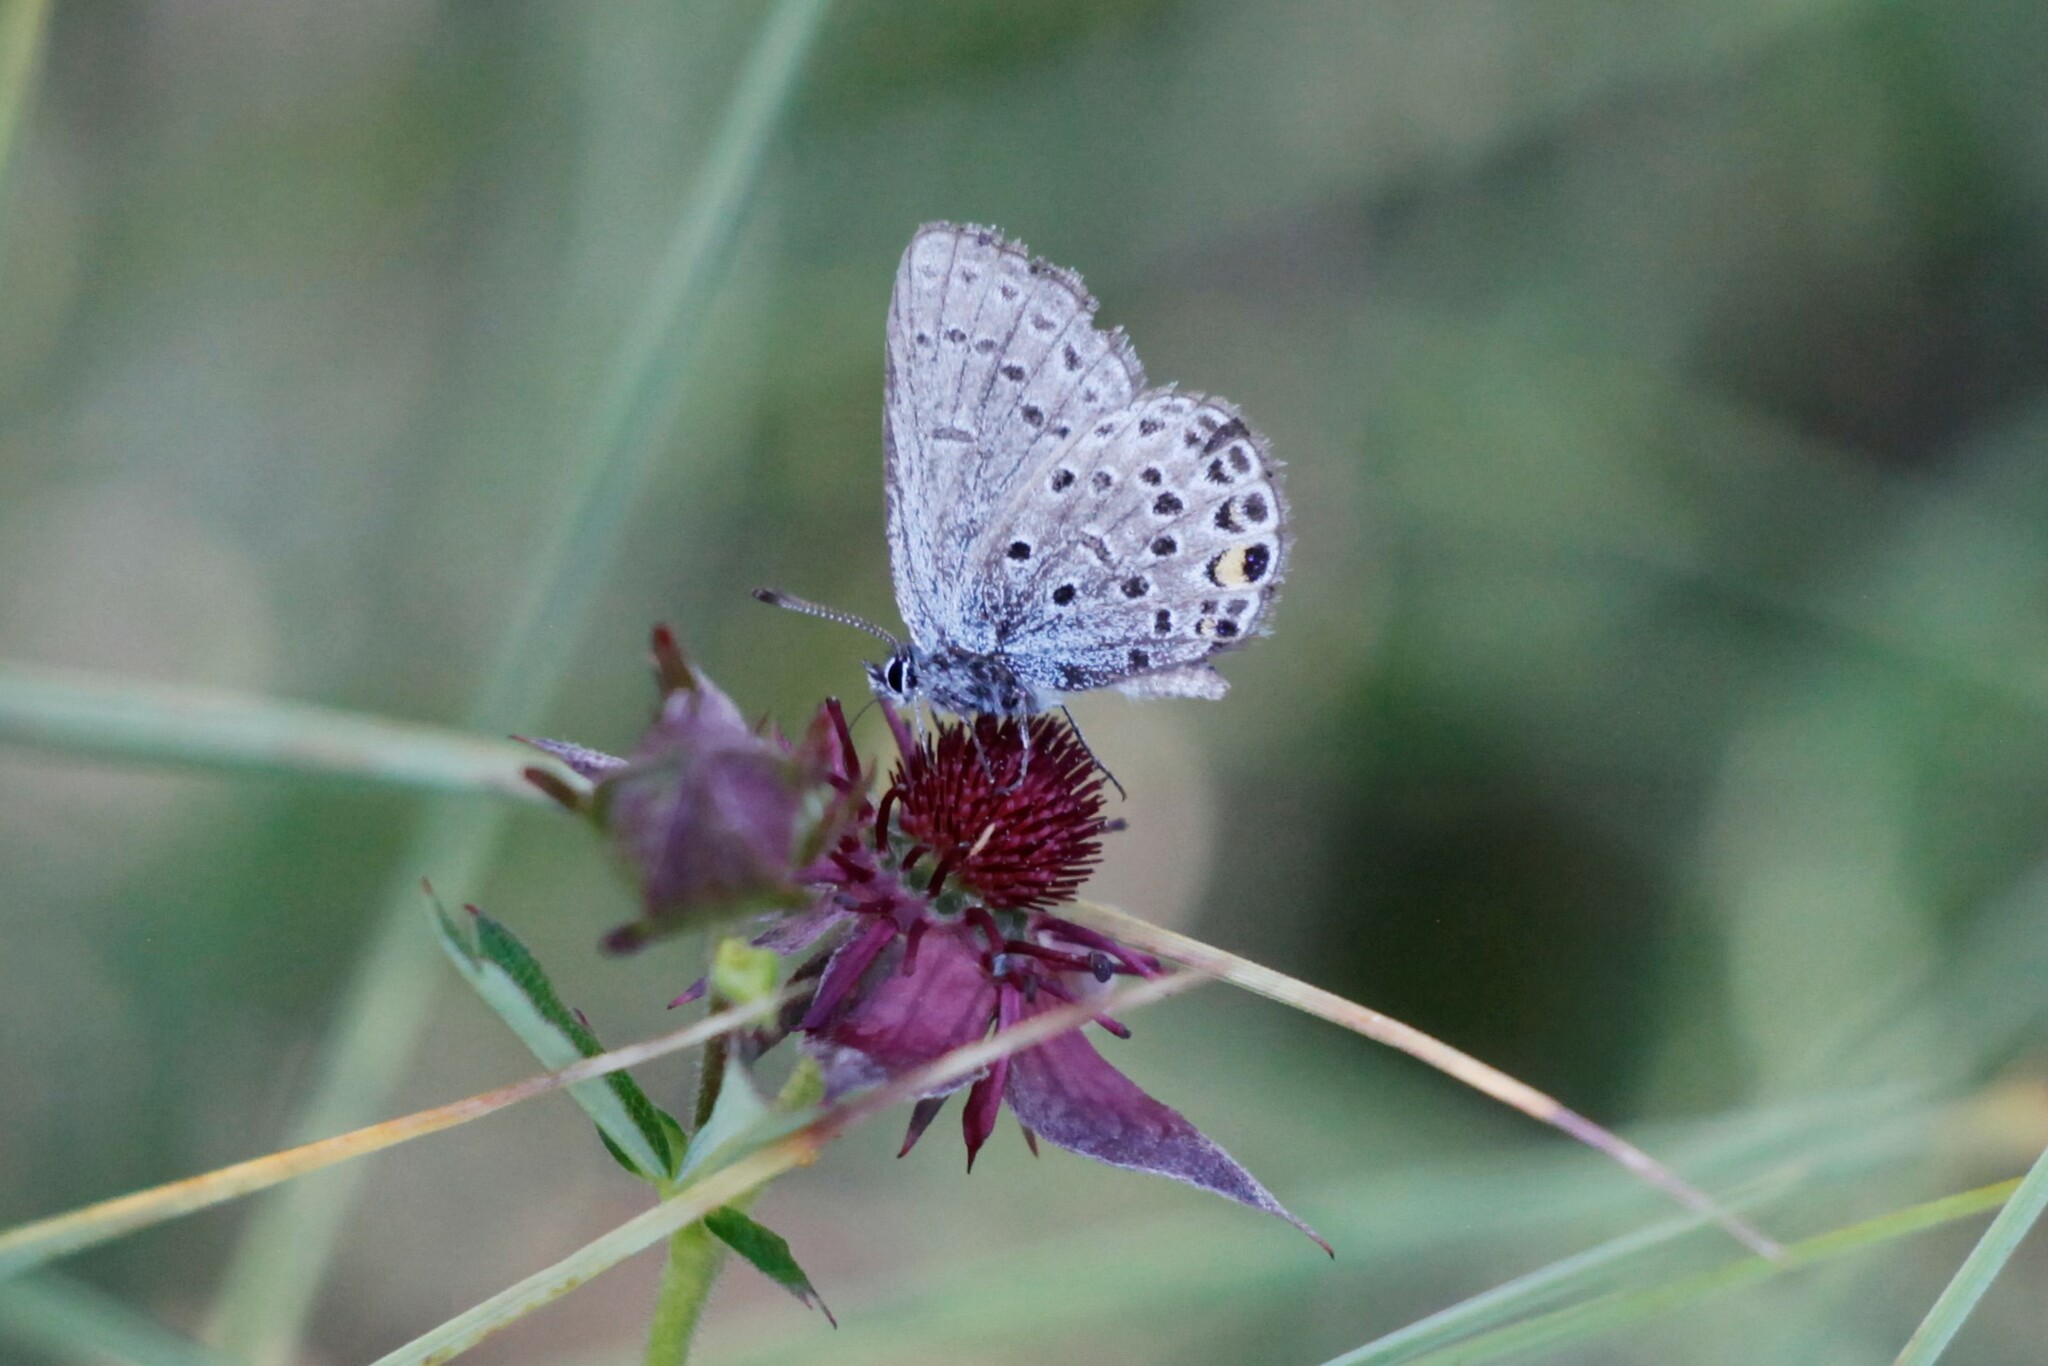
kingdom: Animalia
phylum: Arthropoda
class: Insecta
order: Lepidoptera
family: Lycaenidae
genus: Vacciniina
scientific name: Vacciniina optilete
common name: Cranberry blue
